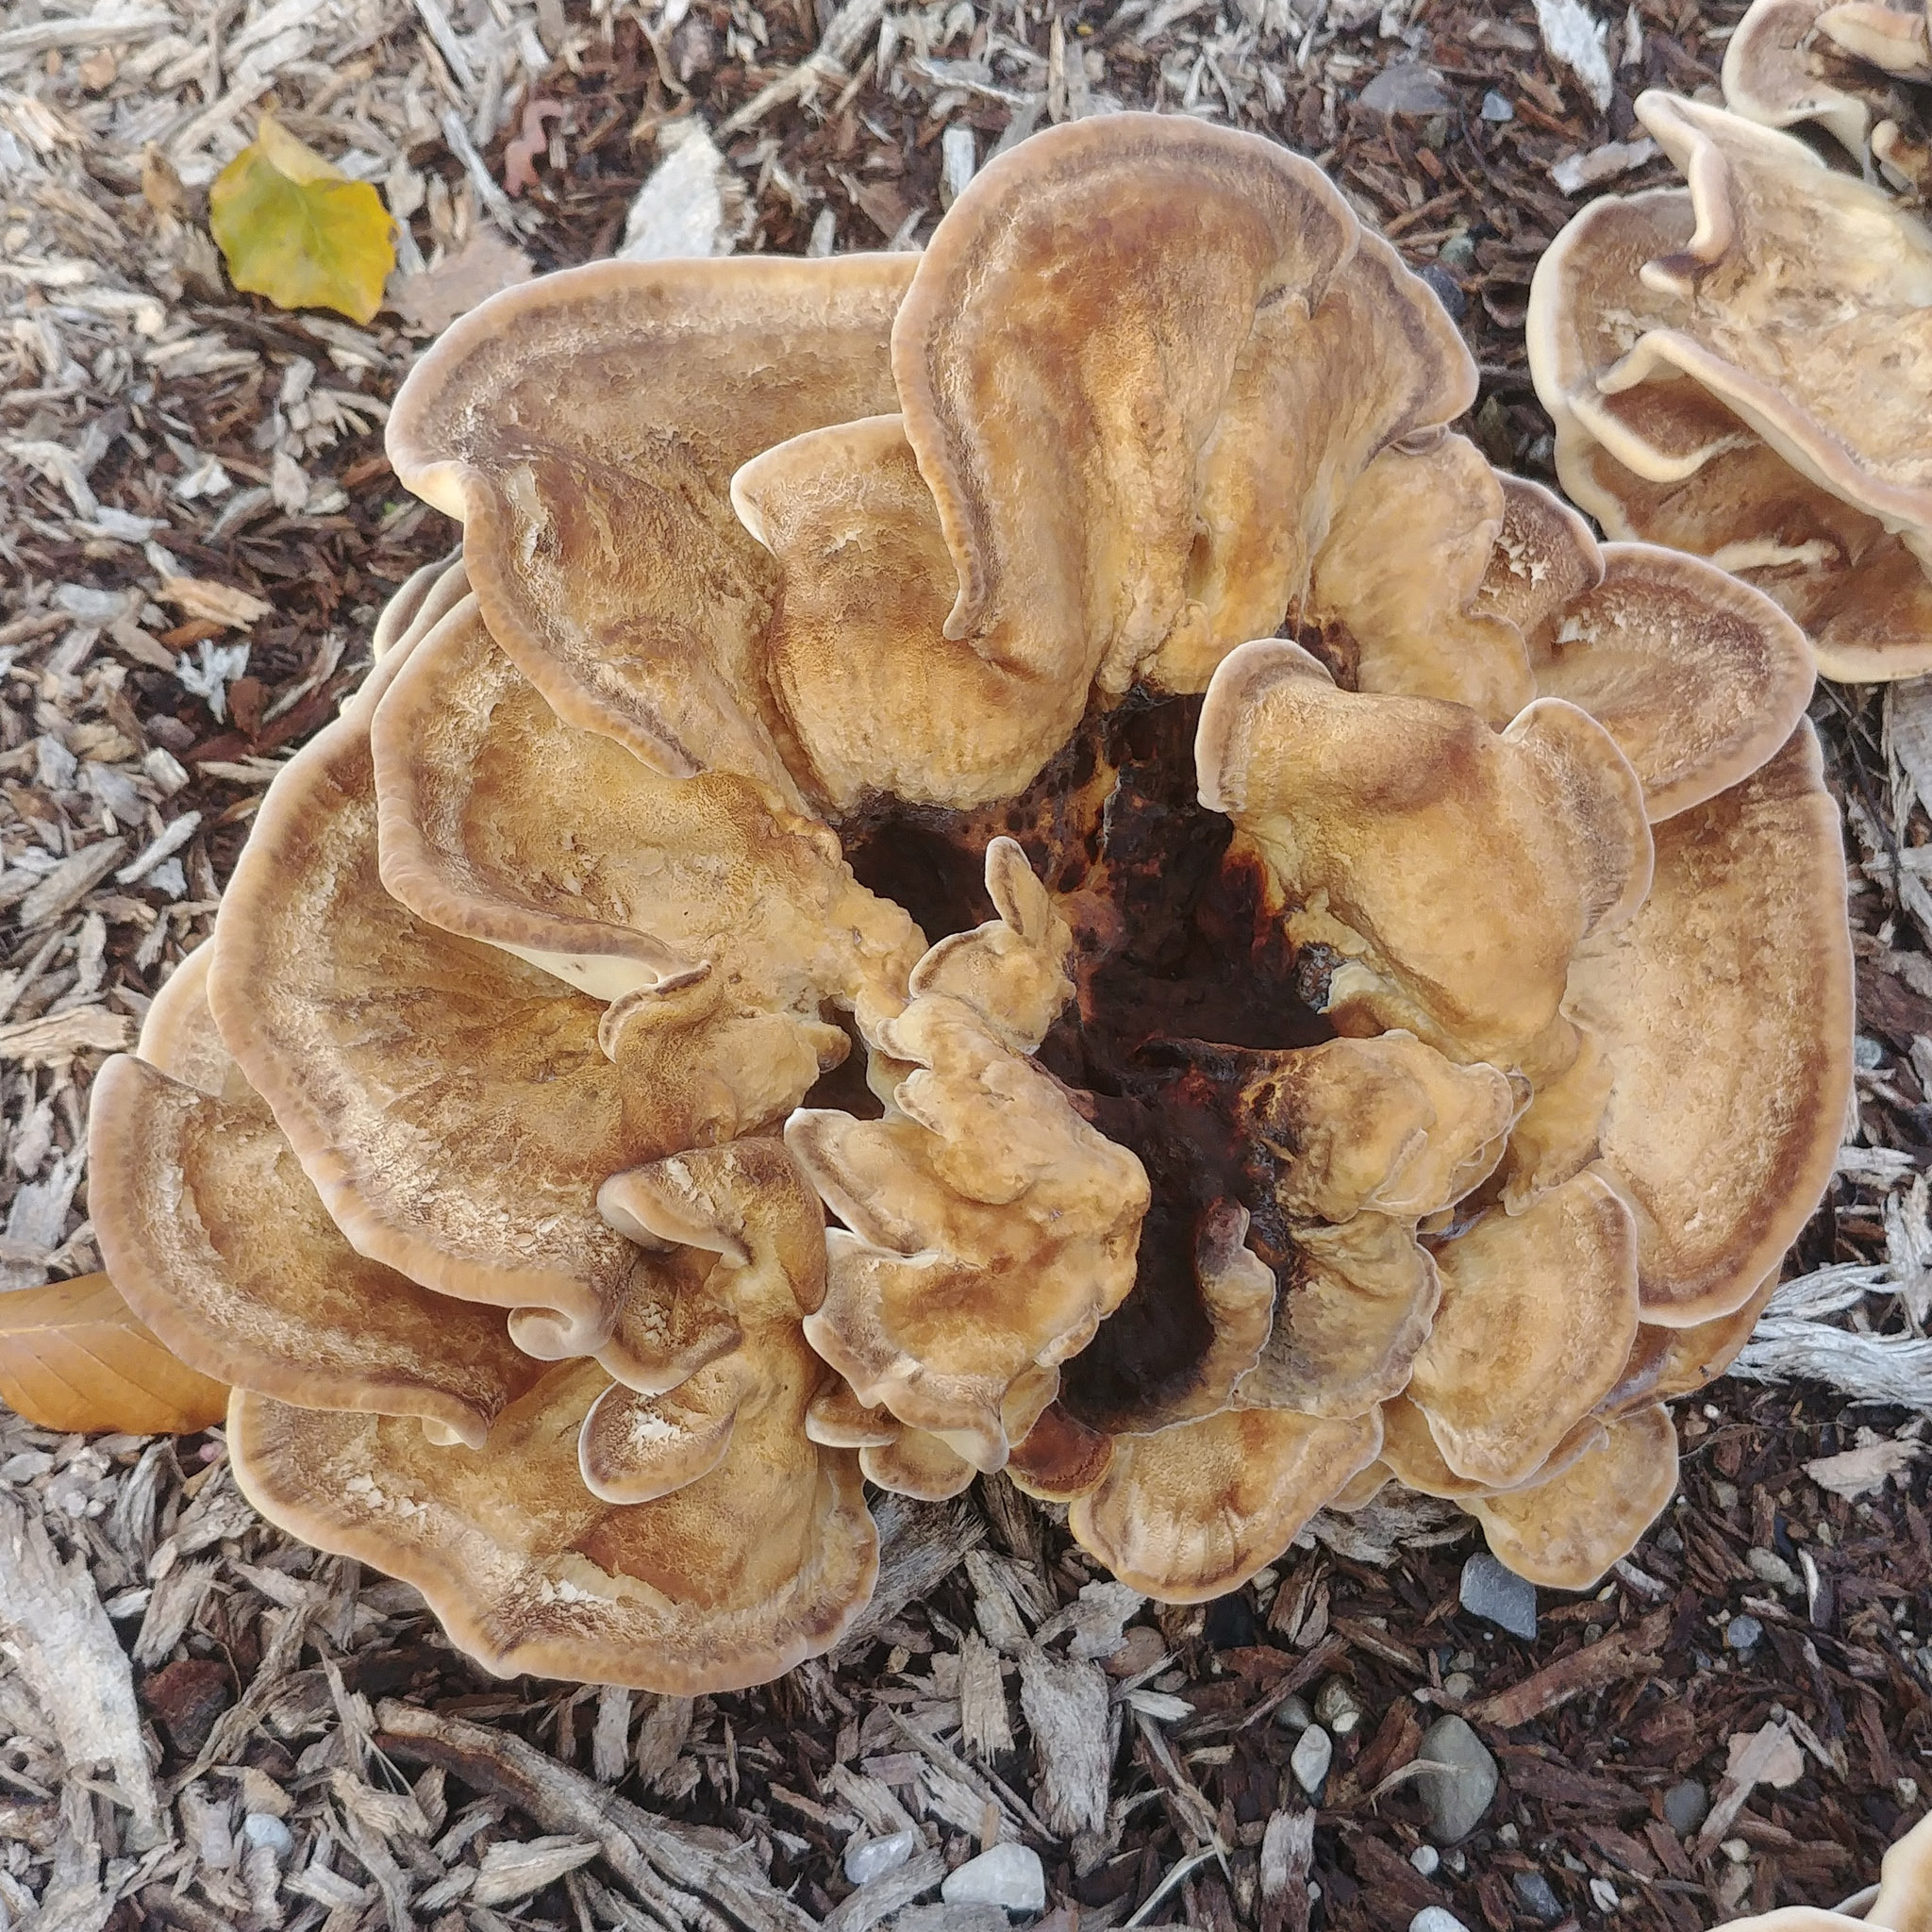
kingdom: Fungi
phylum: Basidiomycota
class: Agaricomycetes
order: Polyporales
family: Meripilaceae
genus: Meripilus
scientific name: Meripilus giganteus
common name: Giant polypore
